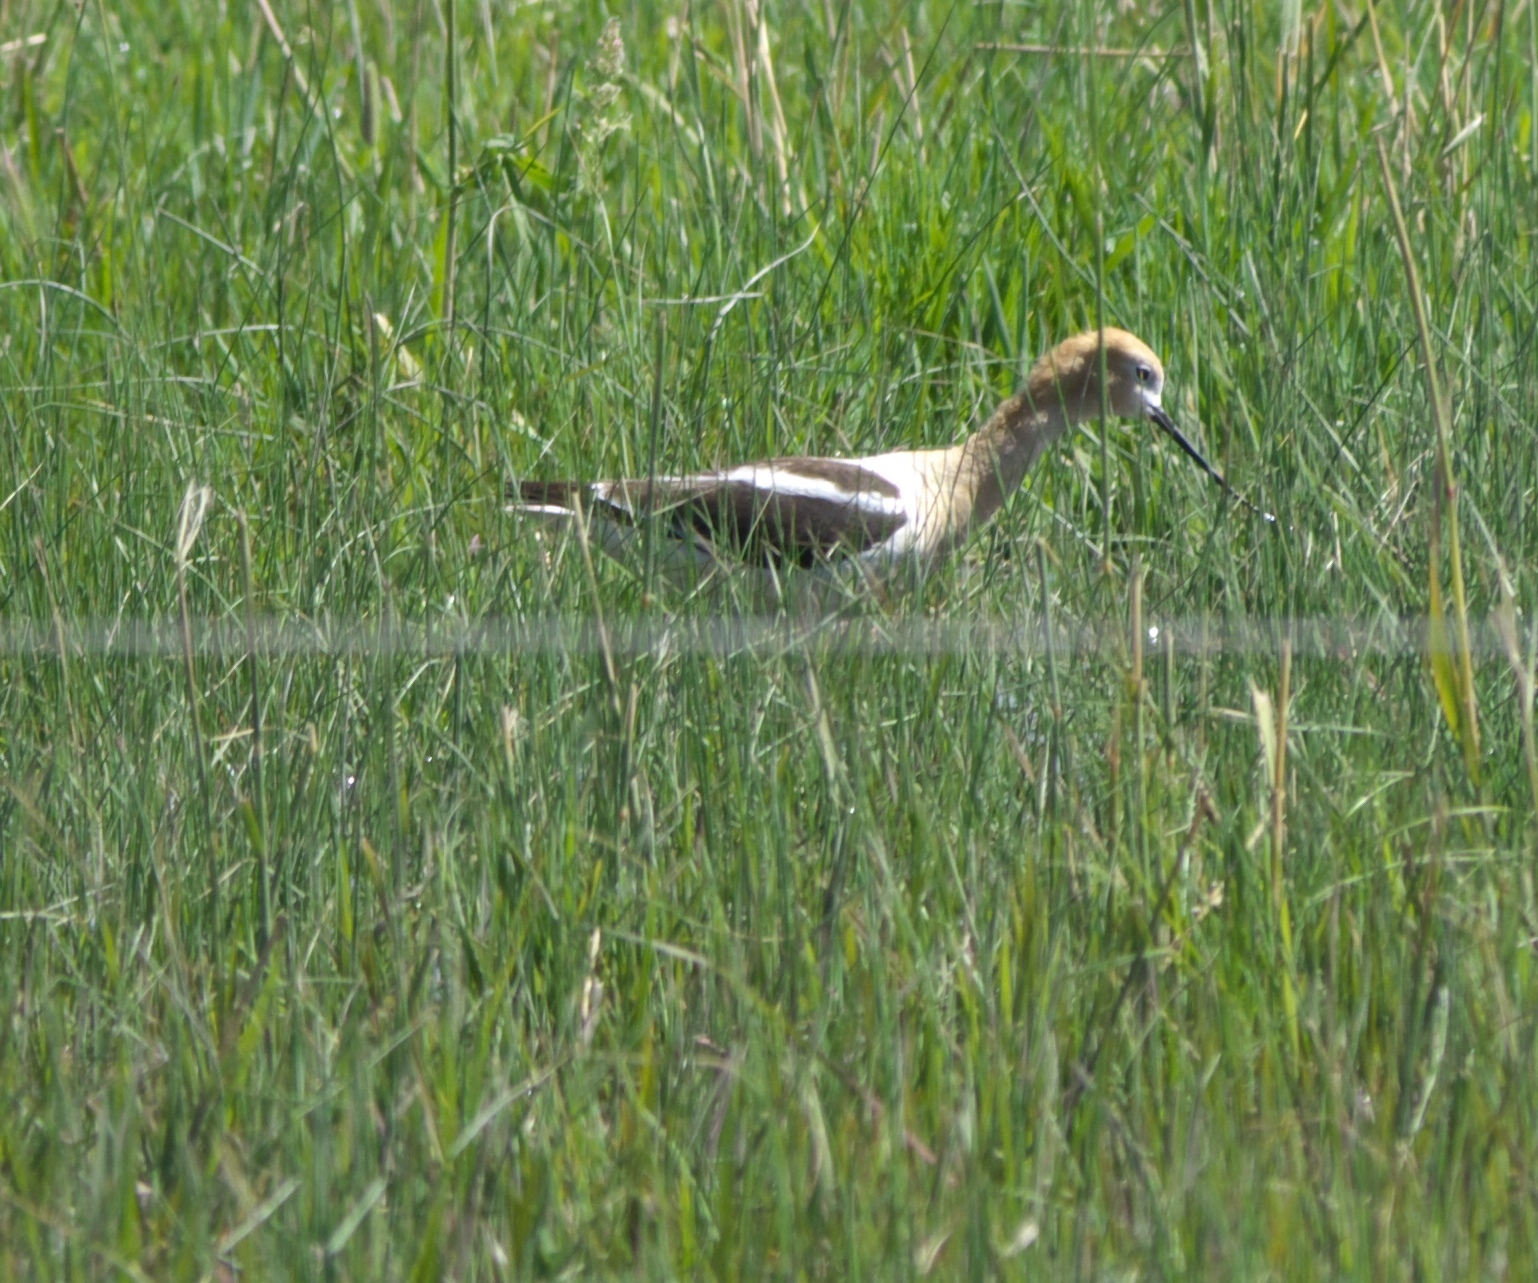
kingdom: Animalia
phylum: Chordata
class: Aves
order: Charadriiformes
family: Recurvirostridae
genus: Recurvirostra
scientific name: Recurvirostra americana
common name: American avocet
